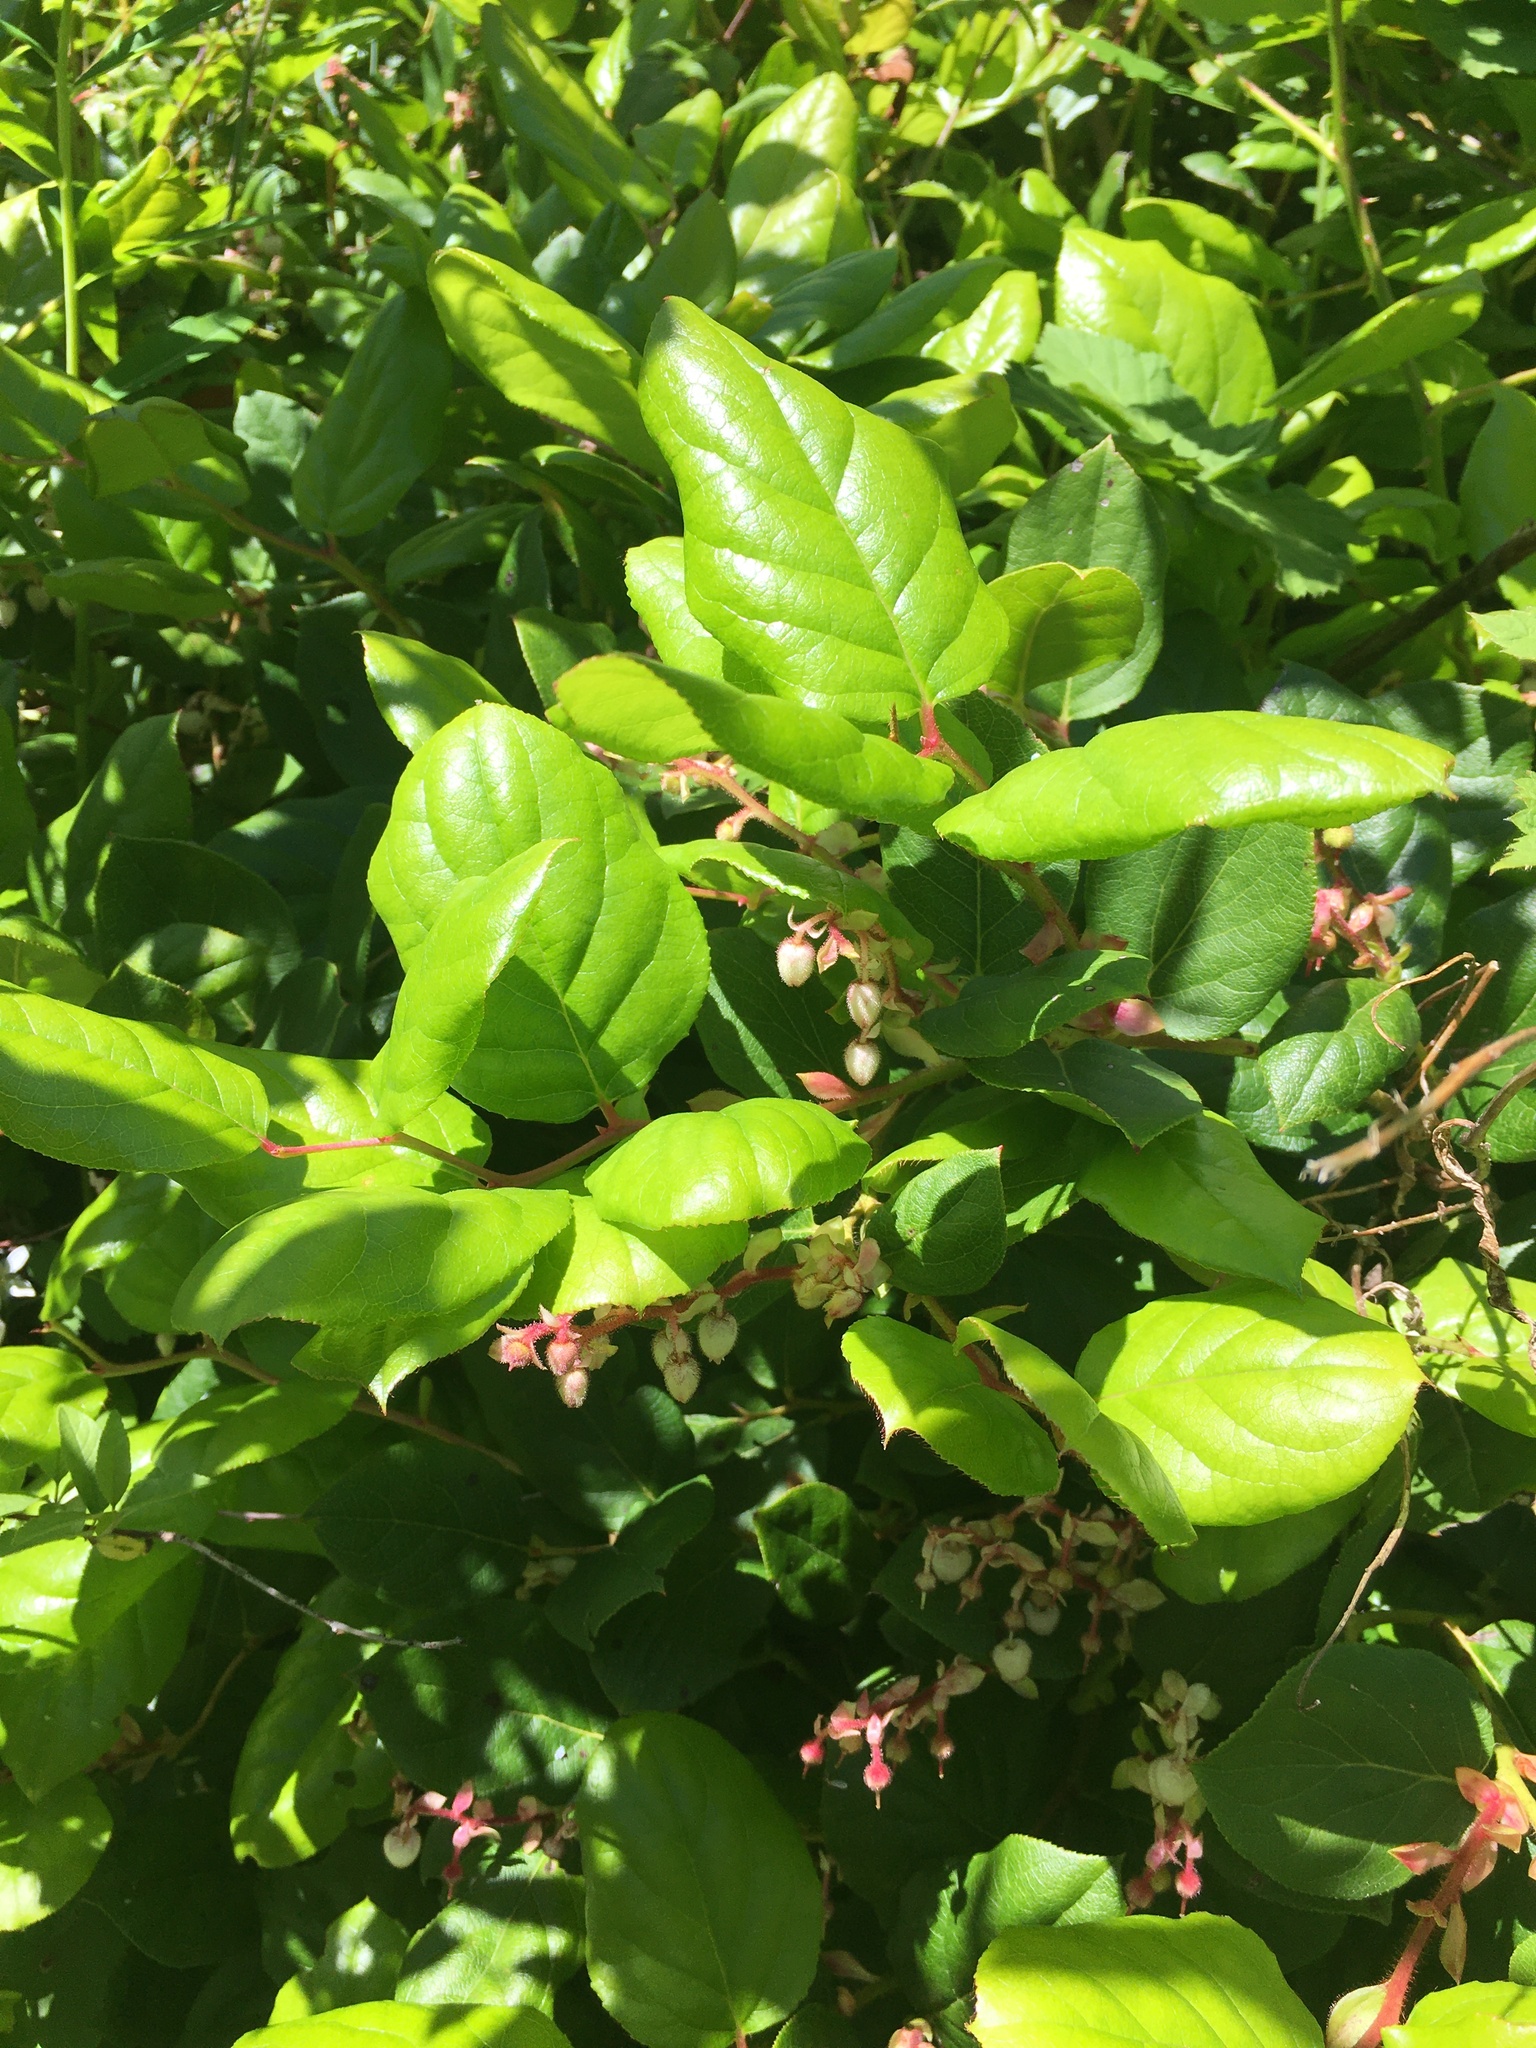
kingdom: Plantae
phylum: Tracheophyta
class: Magnoliopsida
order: Ericales
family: Ericaceae
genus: Gaultheria
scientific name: Gaultheria shallon
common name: Shallon
